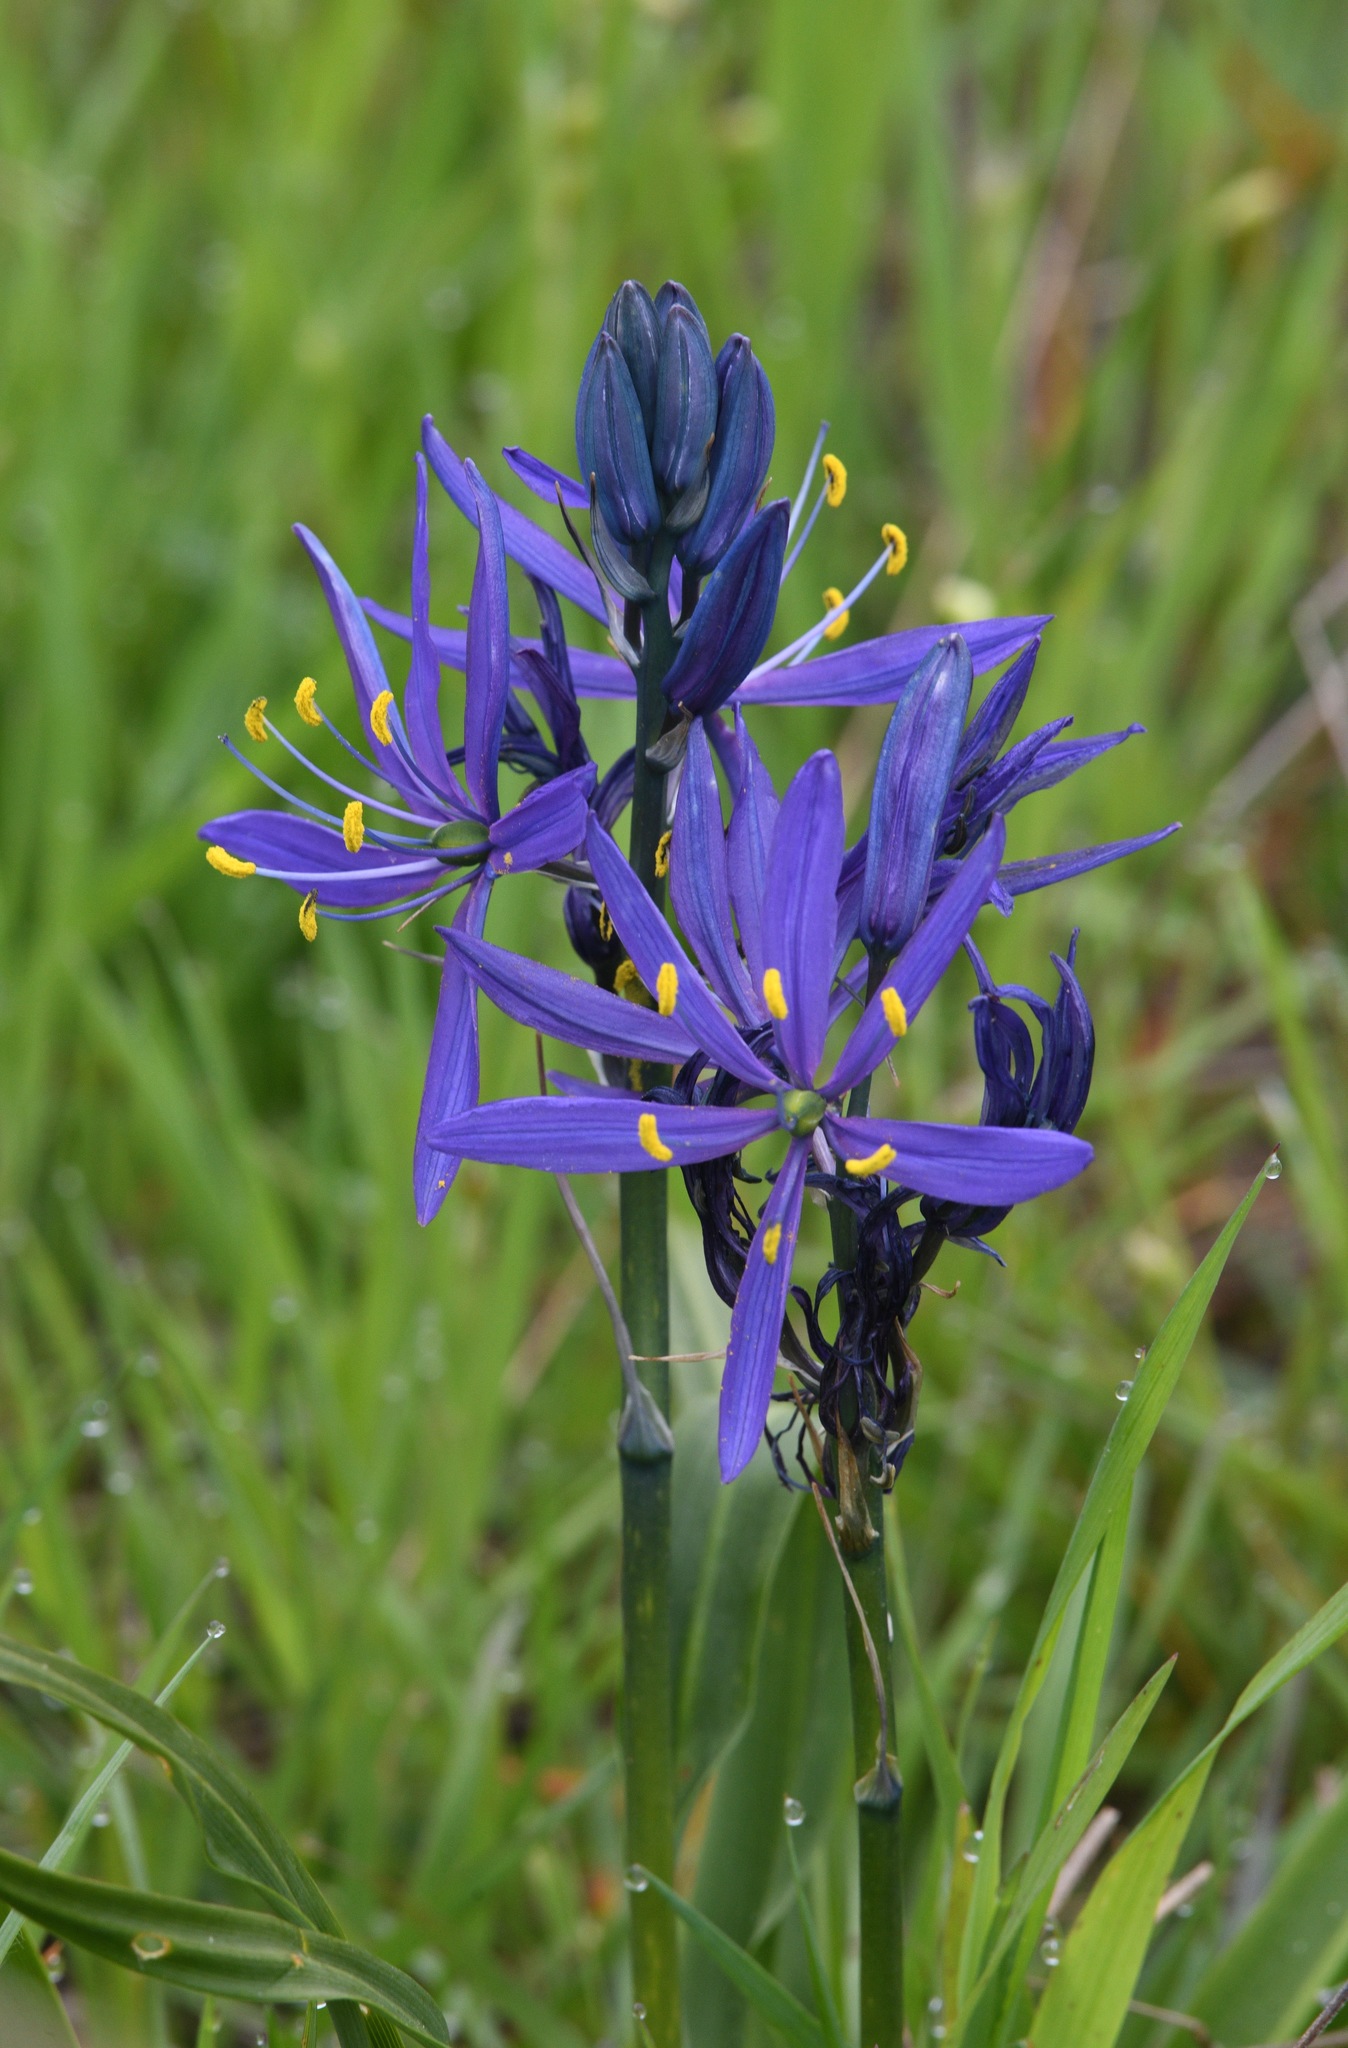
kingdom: Plantae
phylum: Tracheophyta
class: Liliopsida
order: Asparagales
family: Asparagaceae
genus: Camassia
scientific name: Camassia quamash
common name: Common camas
